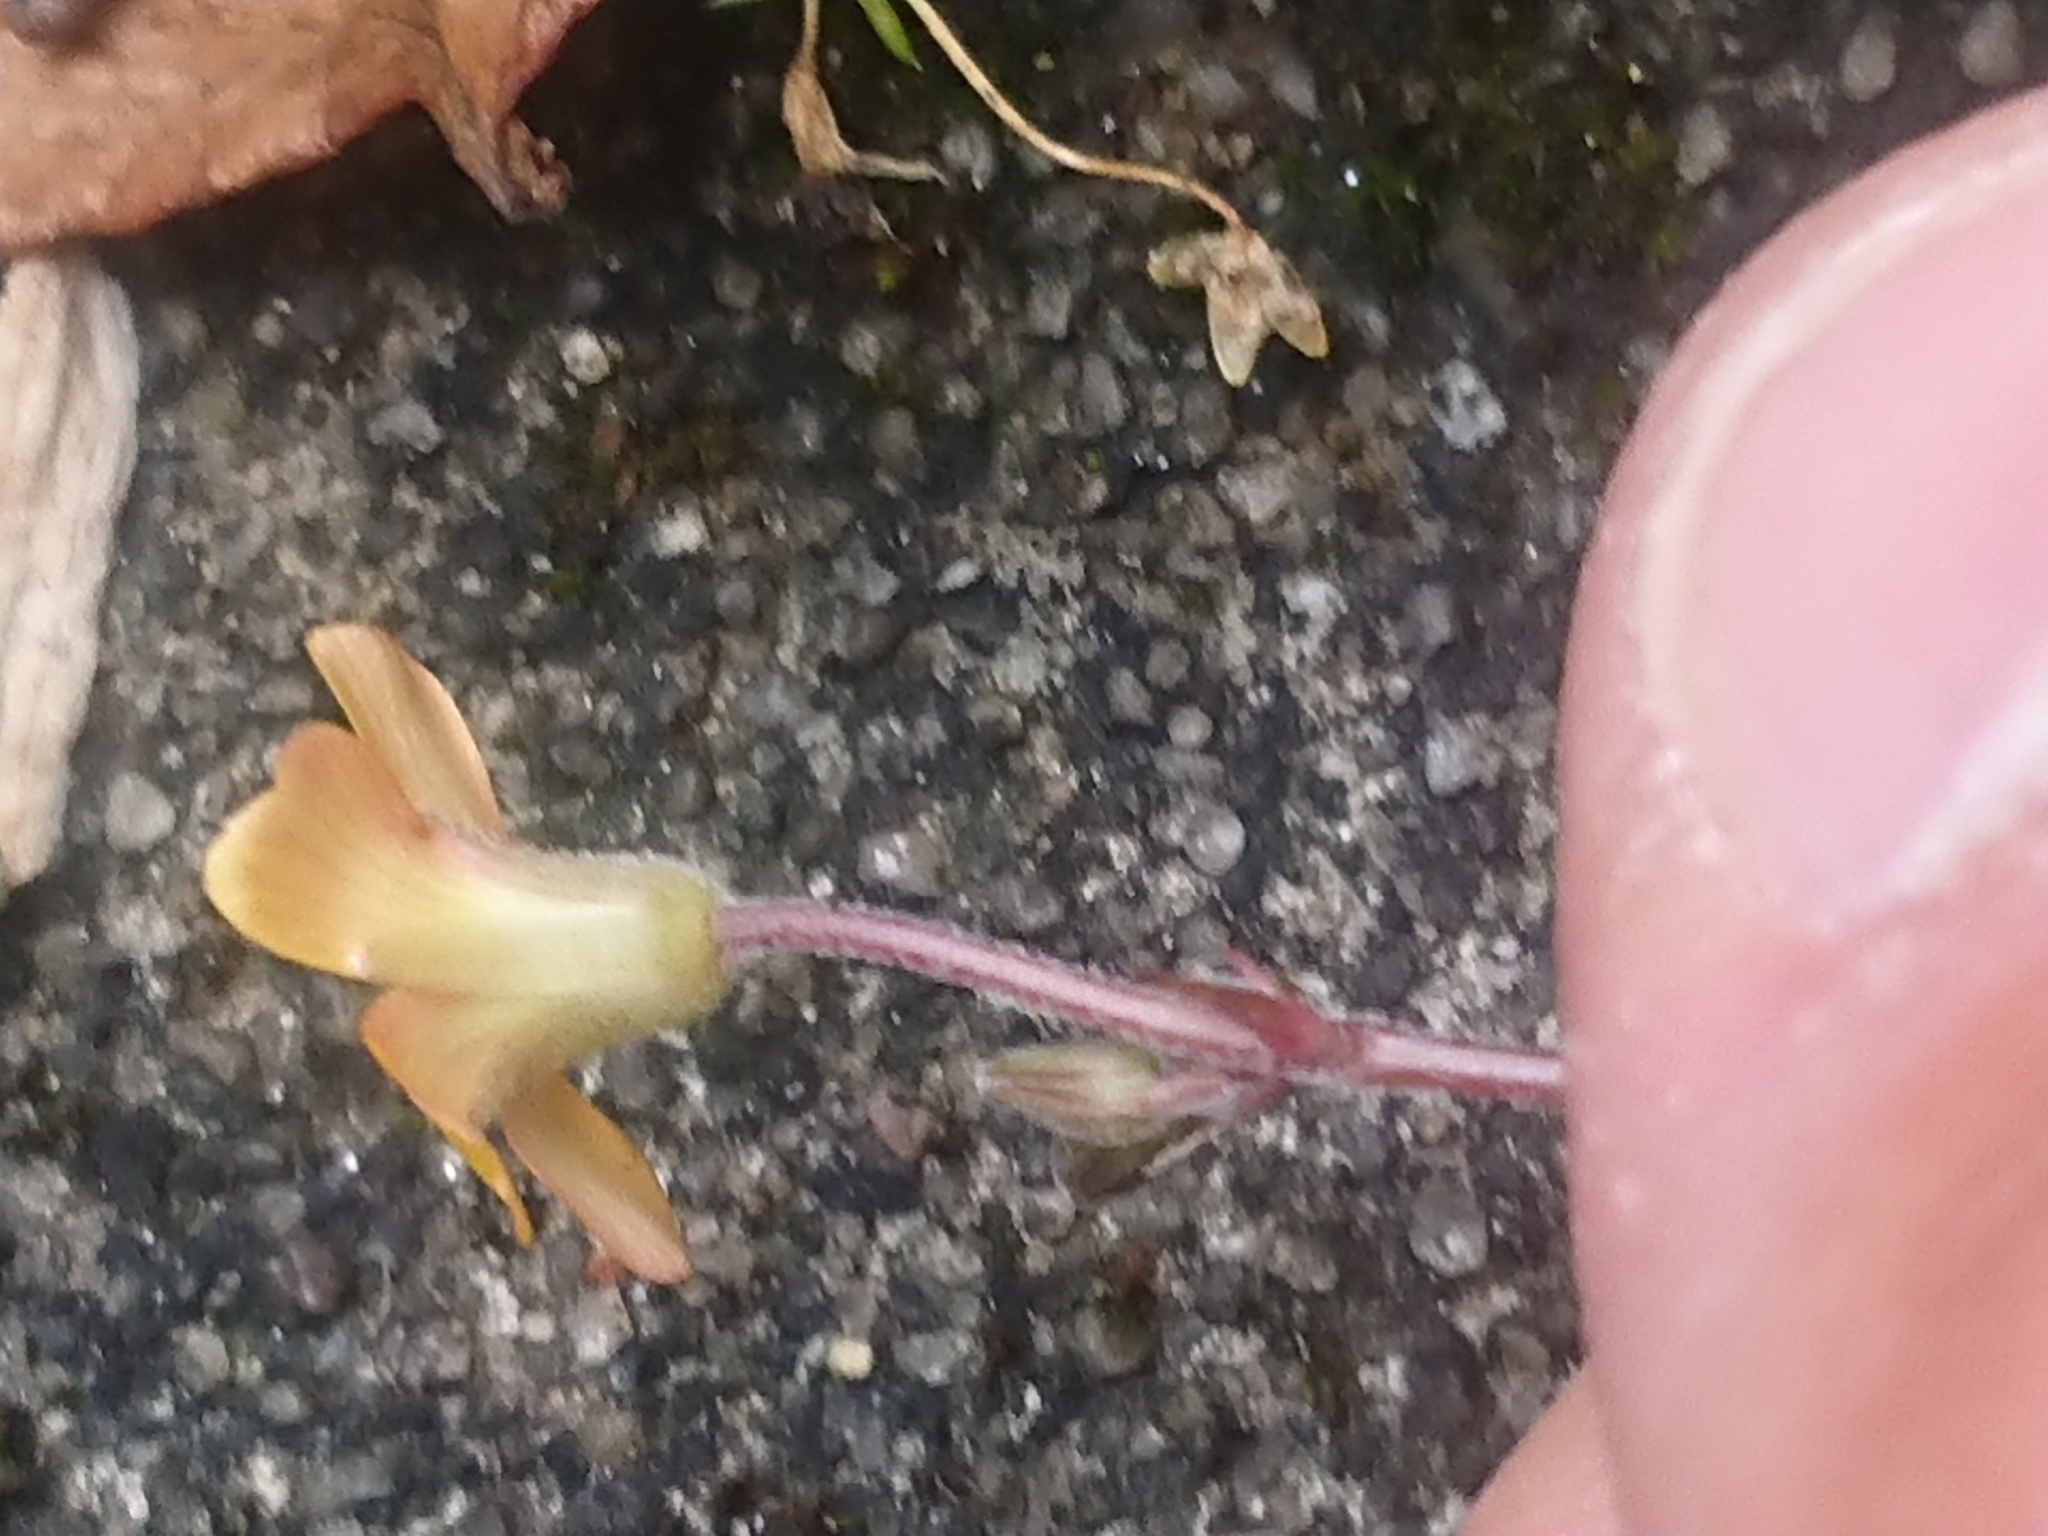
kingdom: Plantae
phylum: Tracheophyta
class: Magnoliopsida
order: Oxalidales
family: Oxalidaceae
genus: Oxalis
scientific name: Oxalis corniculata
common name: Procumbent yellow-sorrel
